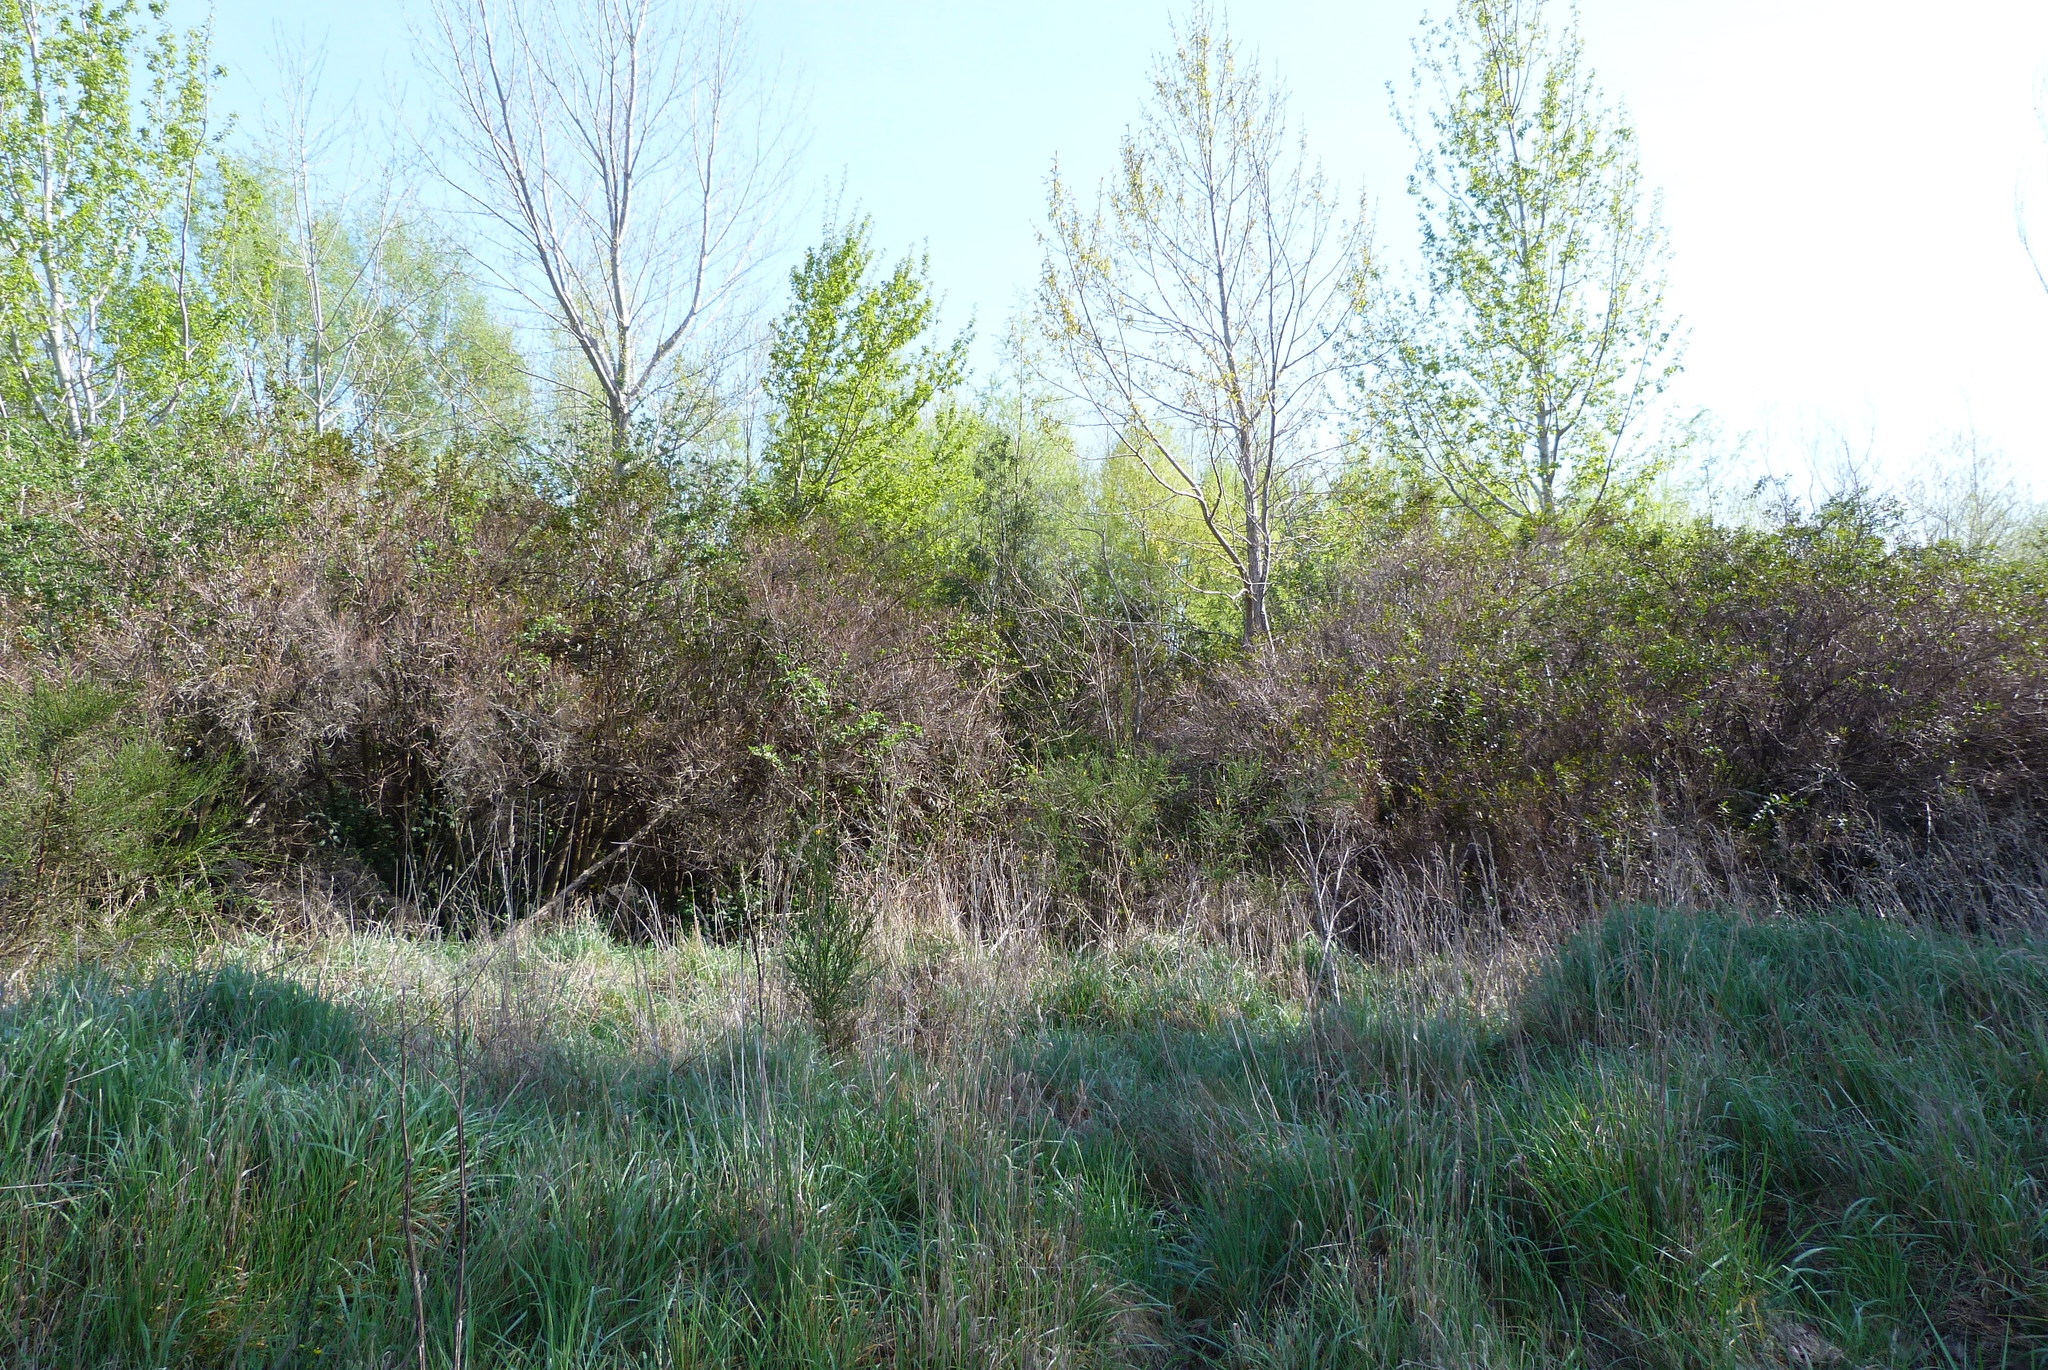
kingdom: Plantae
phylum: Tracheophyta
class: Magnoliopsida
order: Cucurbitales
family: Coriariaceae
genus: Coriaria
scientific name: Coriaria arborea
